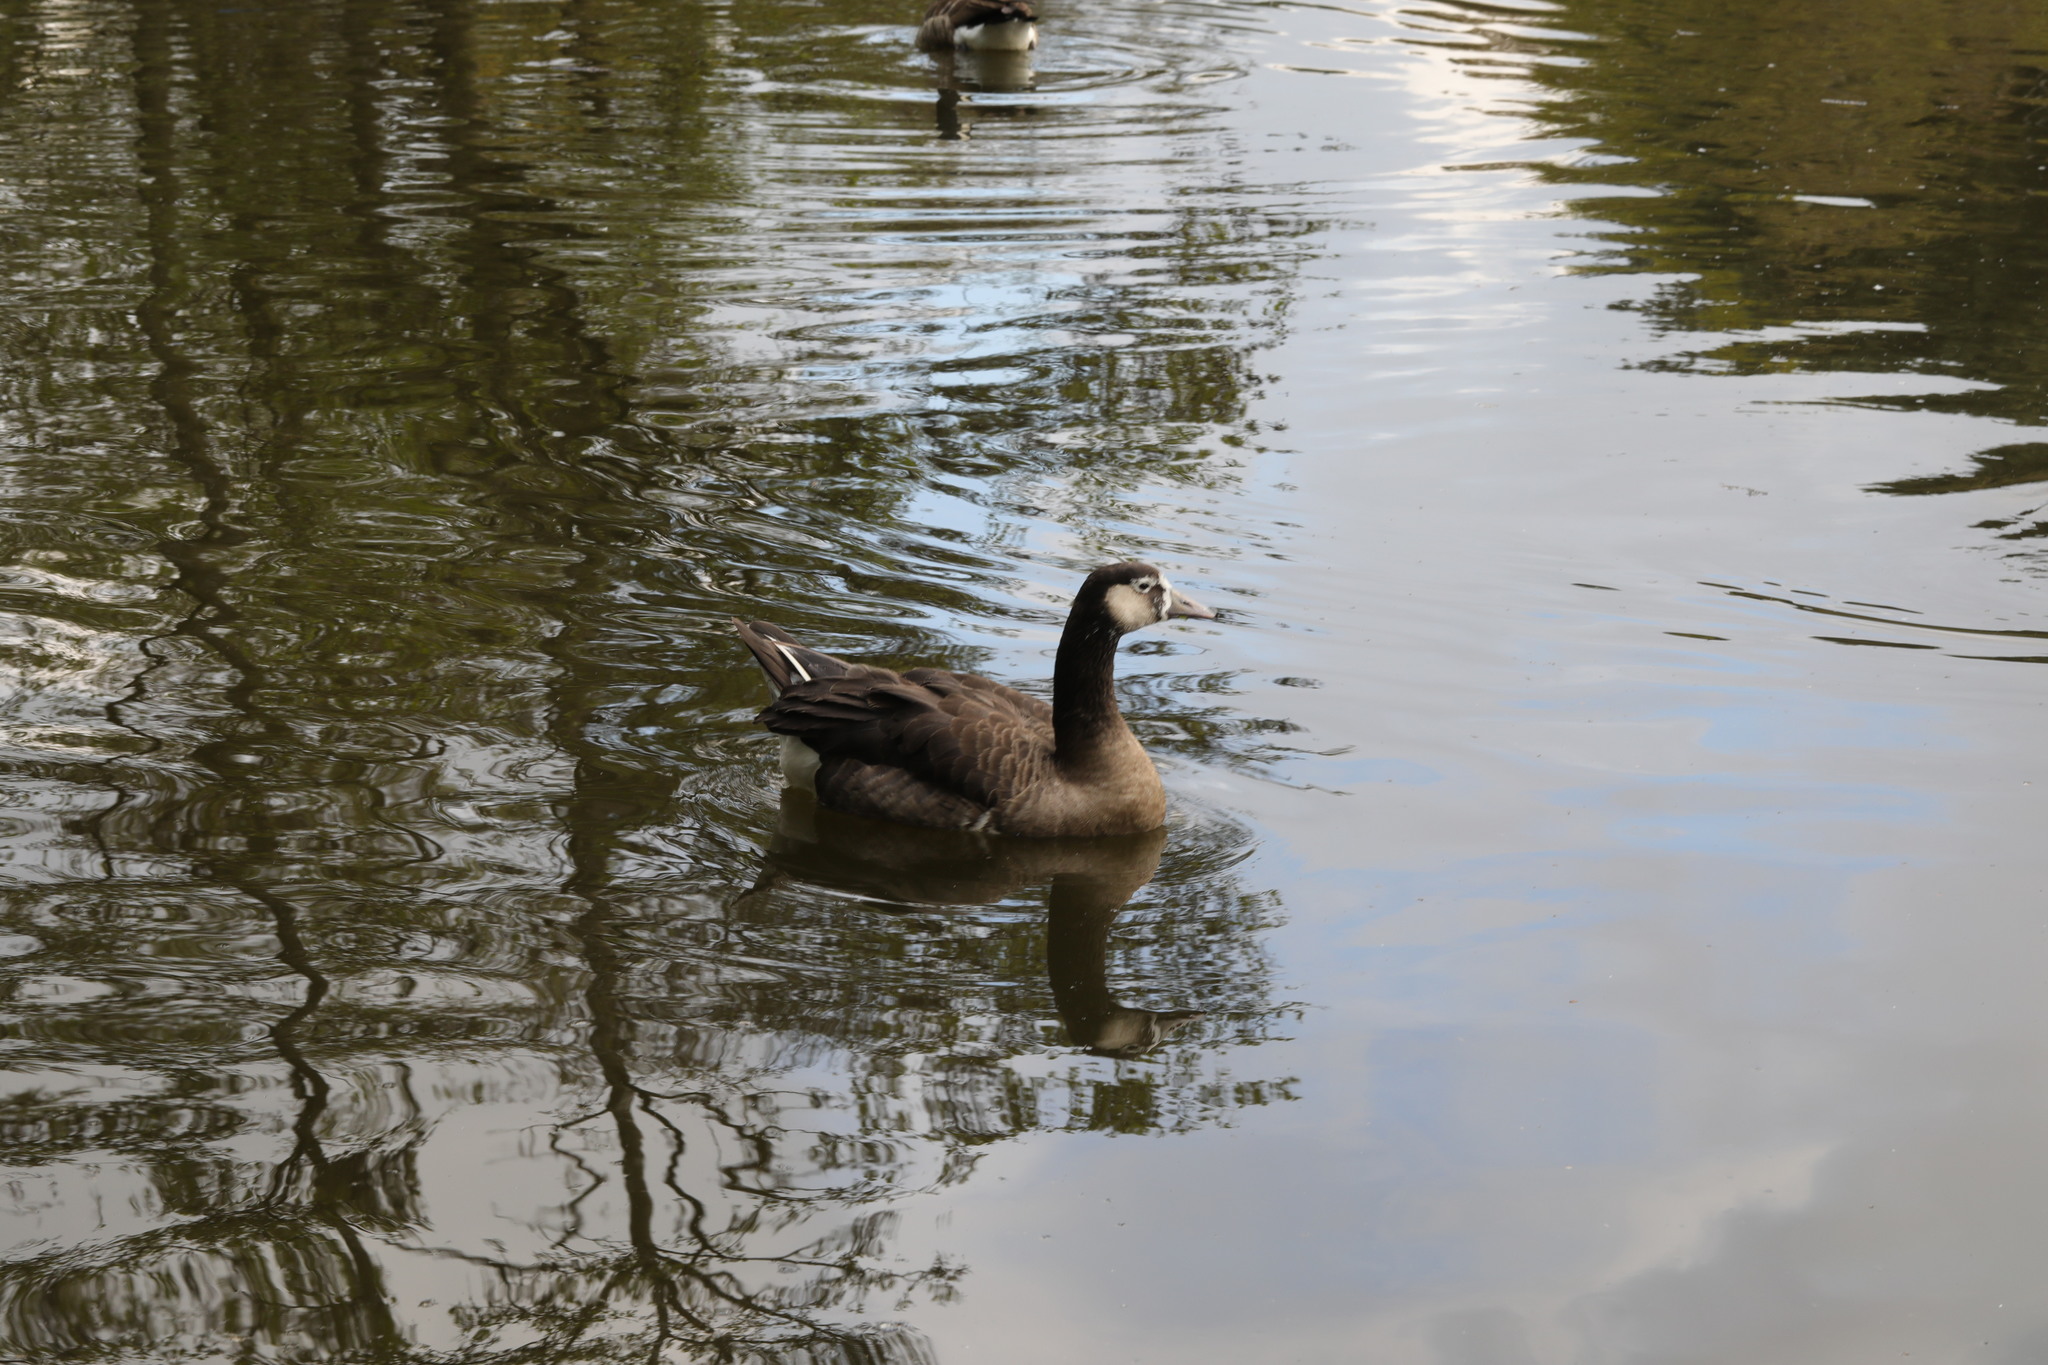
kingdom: Animalia
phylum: Chordata
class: Aves
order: Anseriformes
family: Anatidae
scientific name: Anatidae
